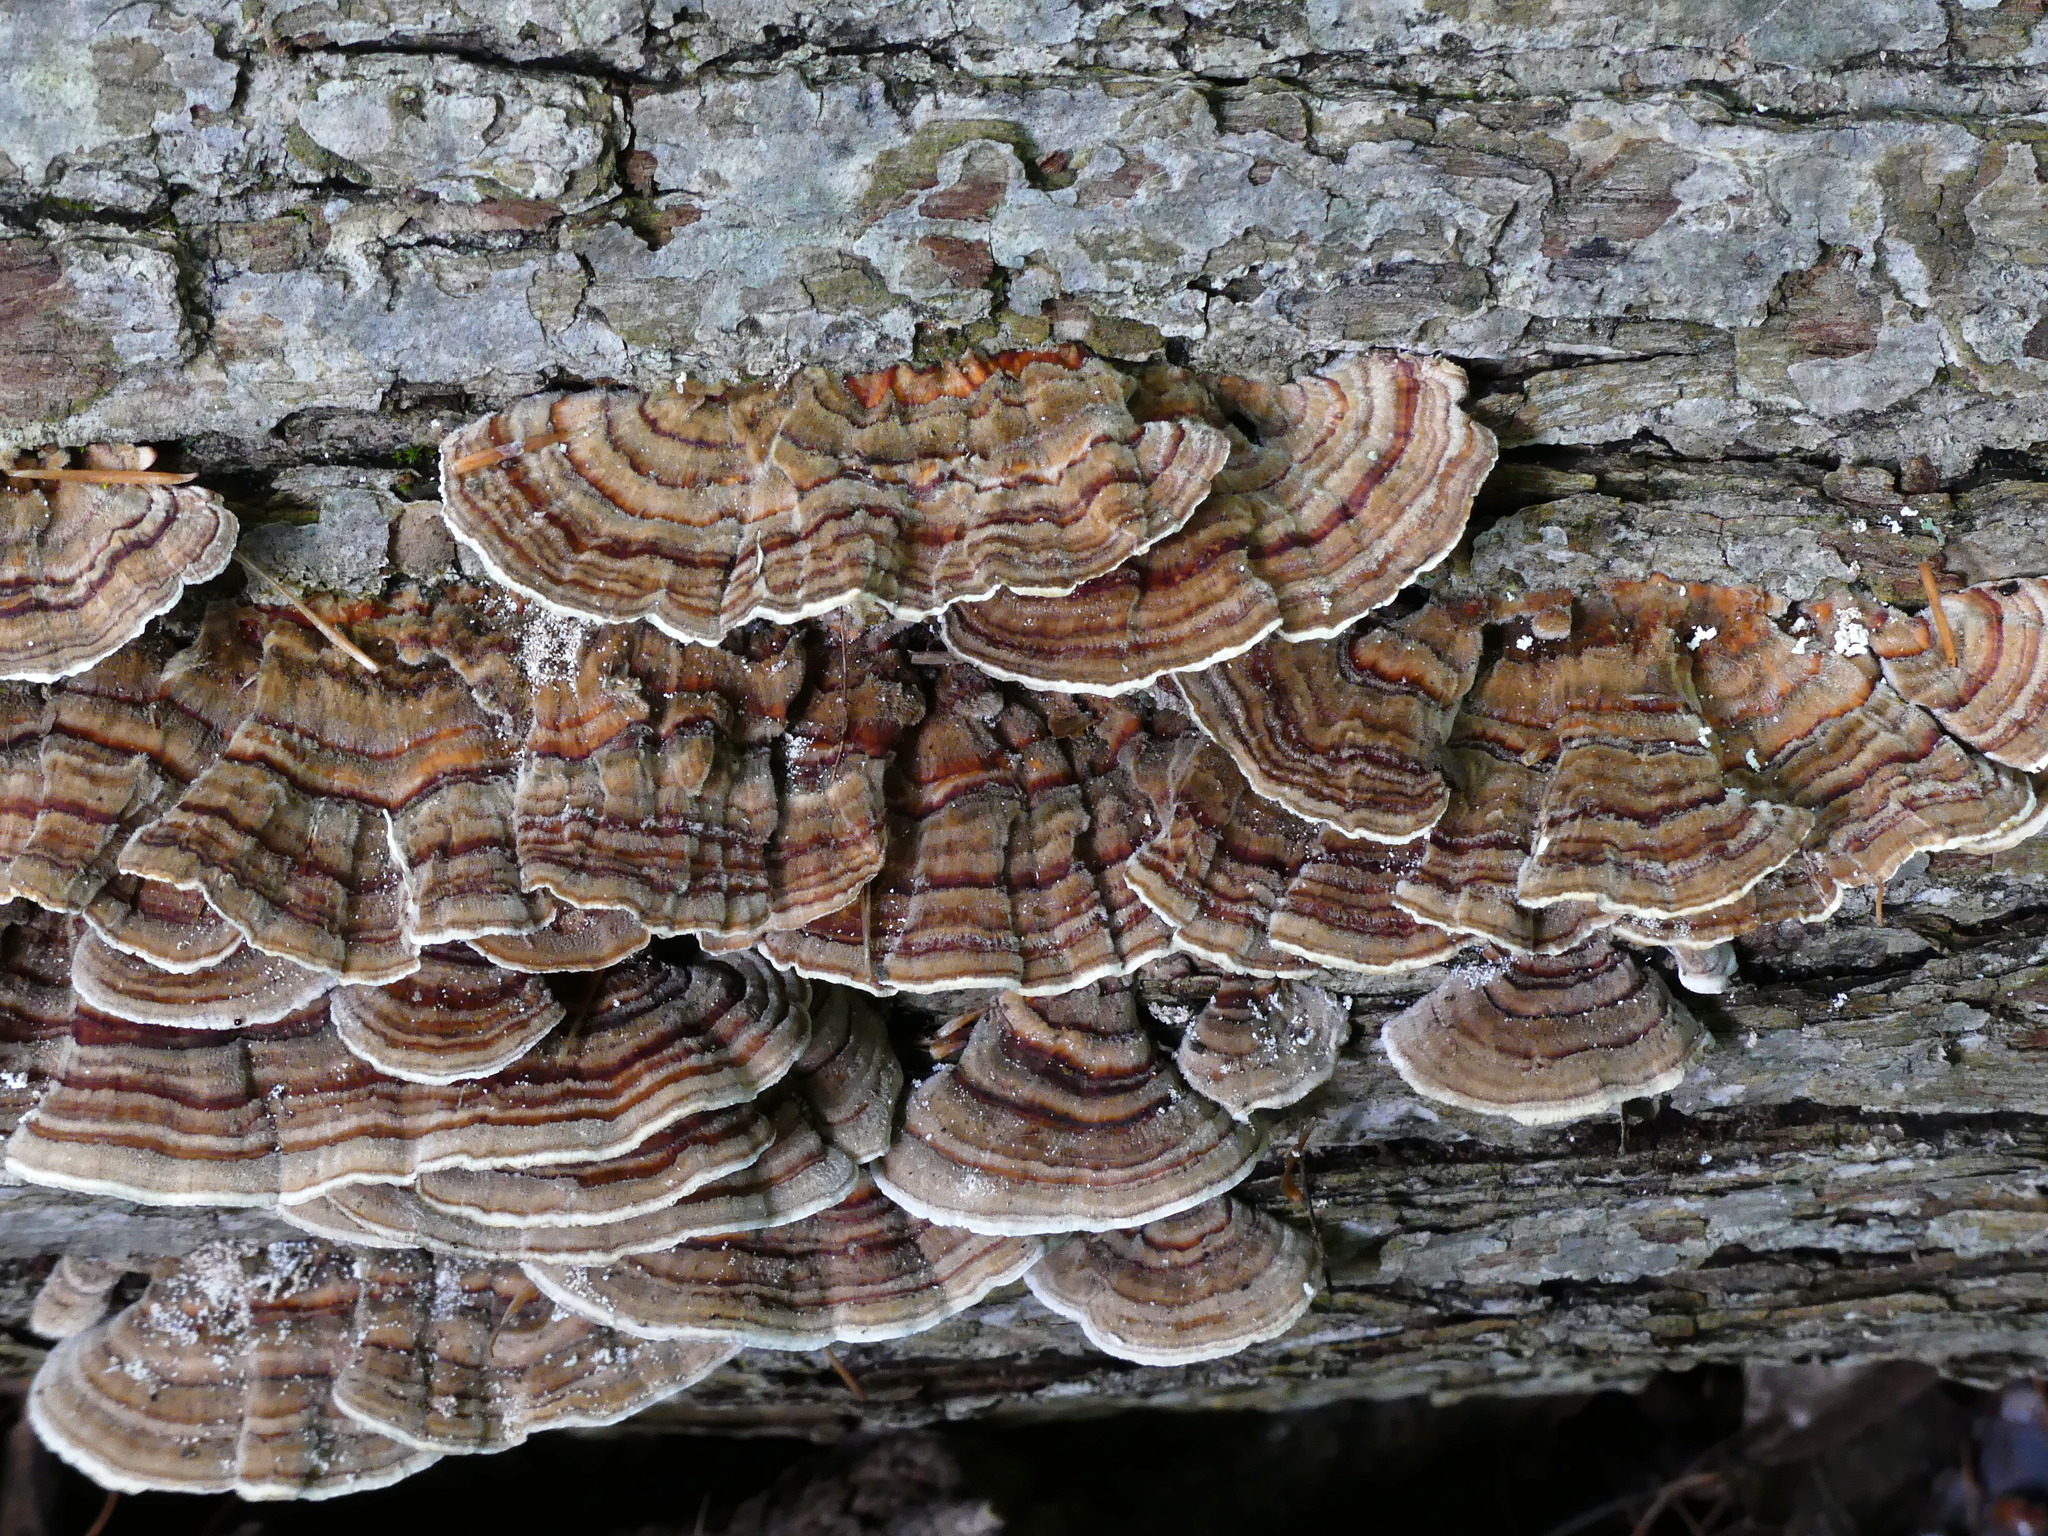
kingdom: Fungi
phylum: Basidiomycota
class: Agaricomycetes
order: Polyporales
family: Polyporaceae
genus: Trametes
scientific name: Trametes versicolor
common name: Turkeytail
